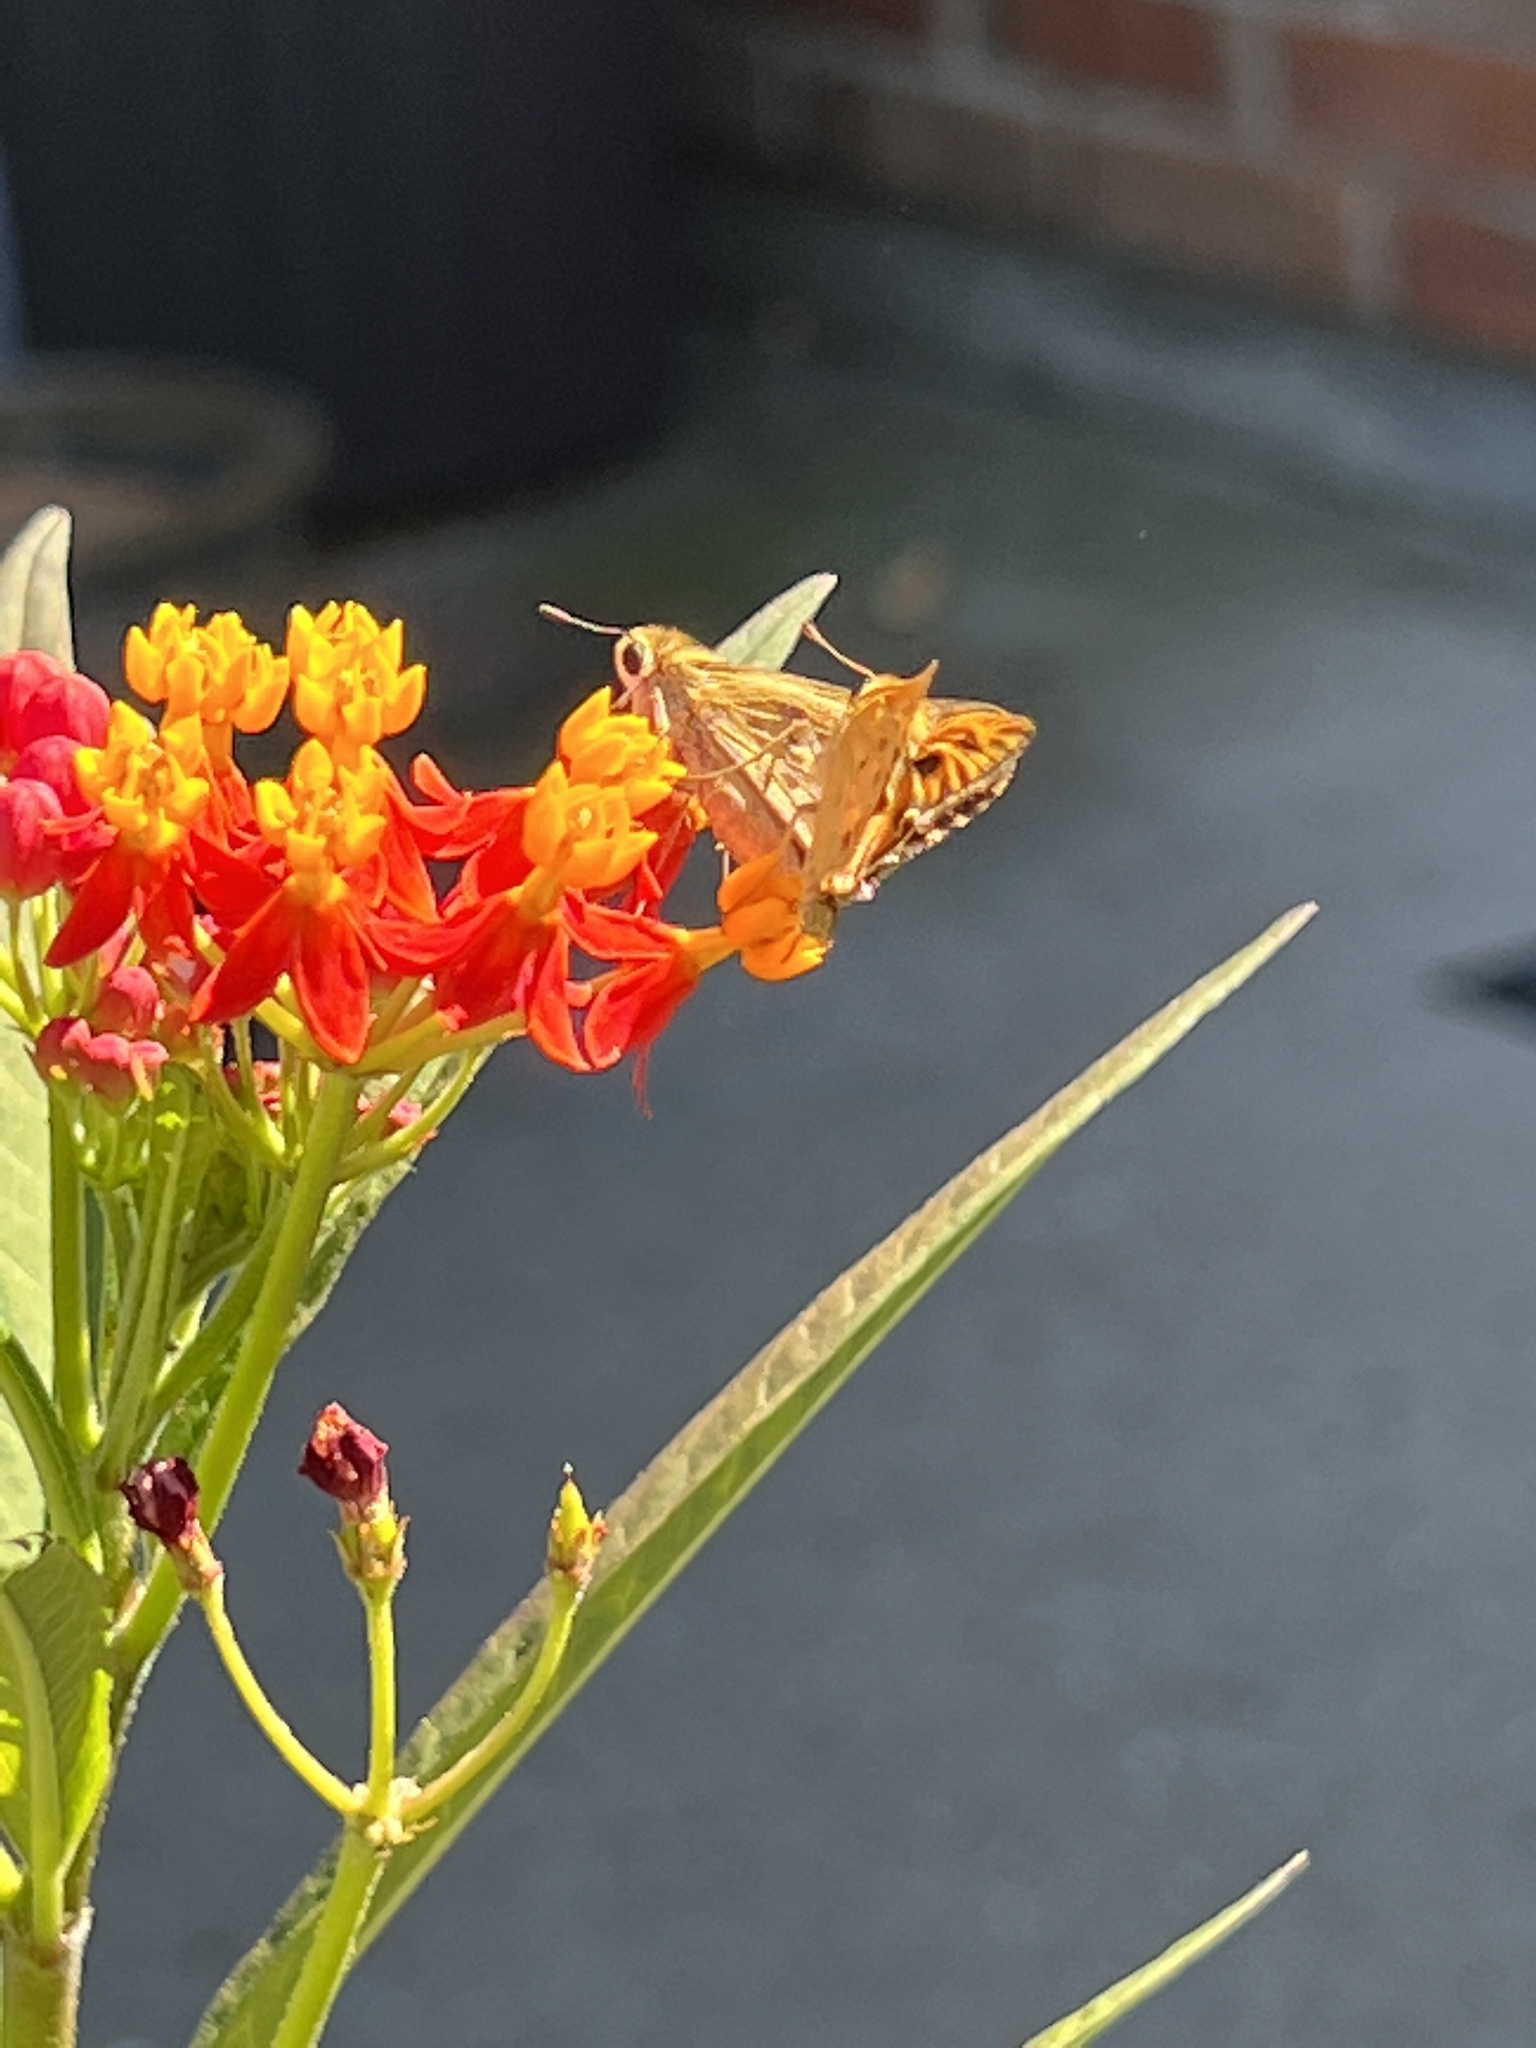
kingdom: Animalia
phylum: Arthropoda
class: Insecta
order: Lepidoptera
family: Hesperiidae
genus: Hylephila
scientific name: Hylephila phyleus
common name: Fiery skipper
